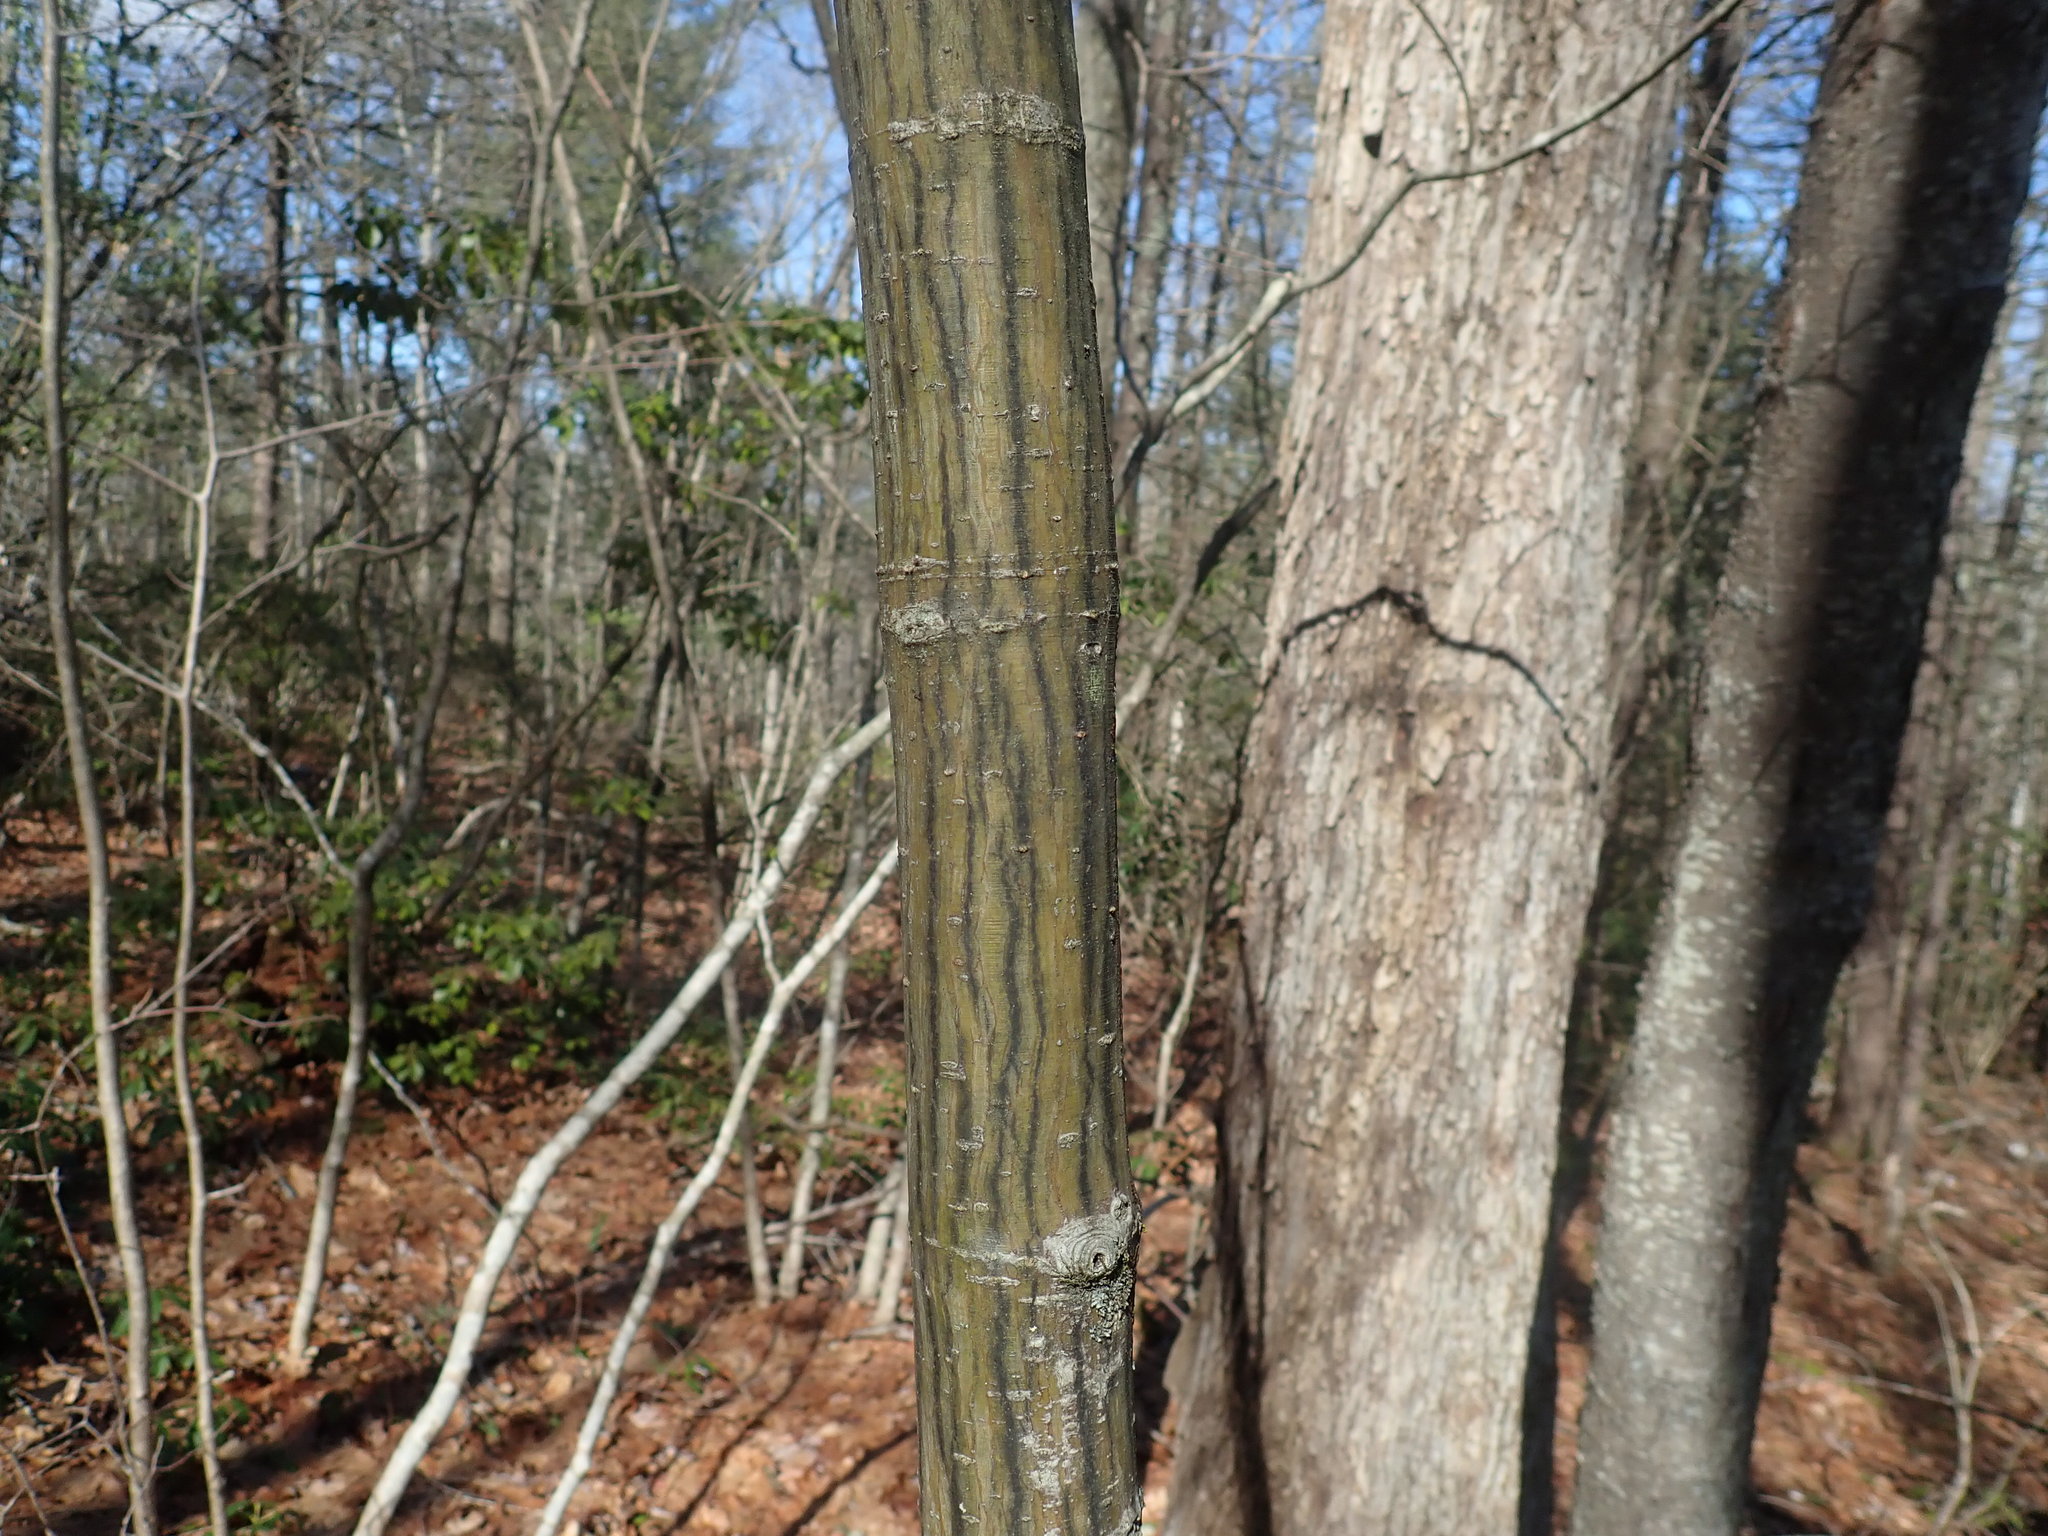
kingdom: Plantae
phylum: Tracheophyta
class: Magnoliopsida
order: Sapindales
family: Sapindaceae
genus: Acer
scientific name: Acer pensylvanicum
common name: Moosewood
